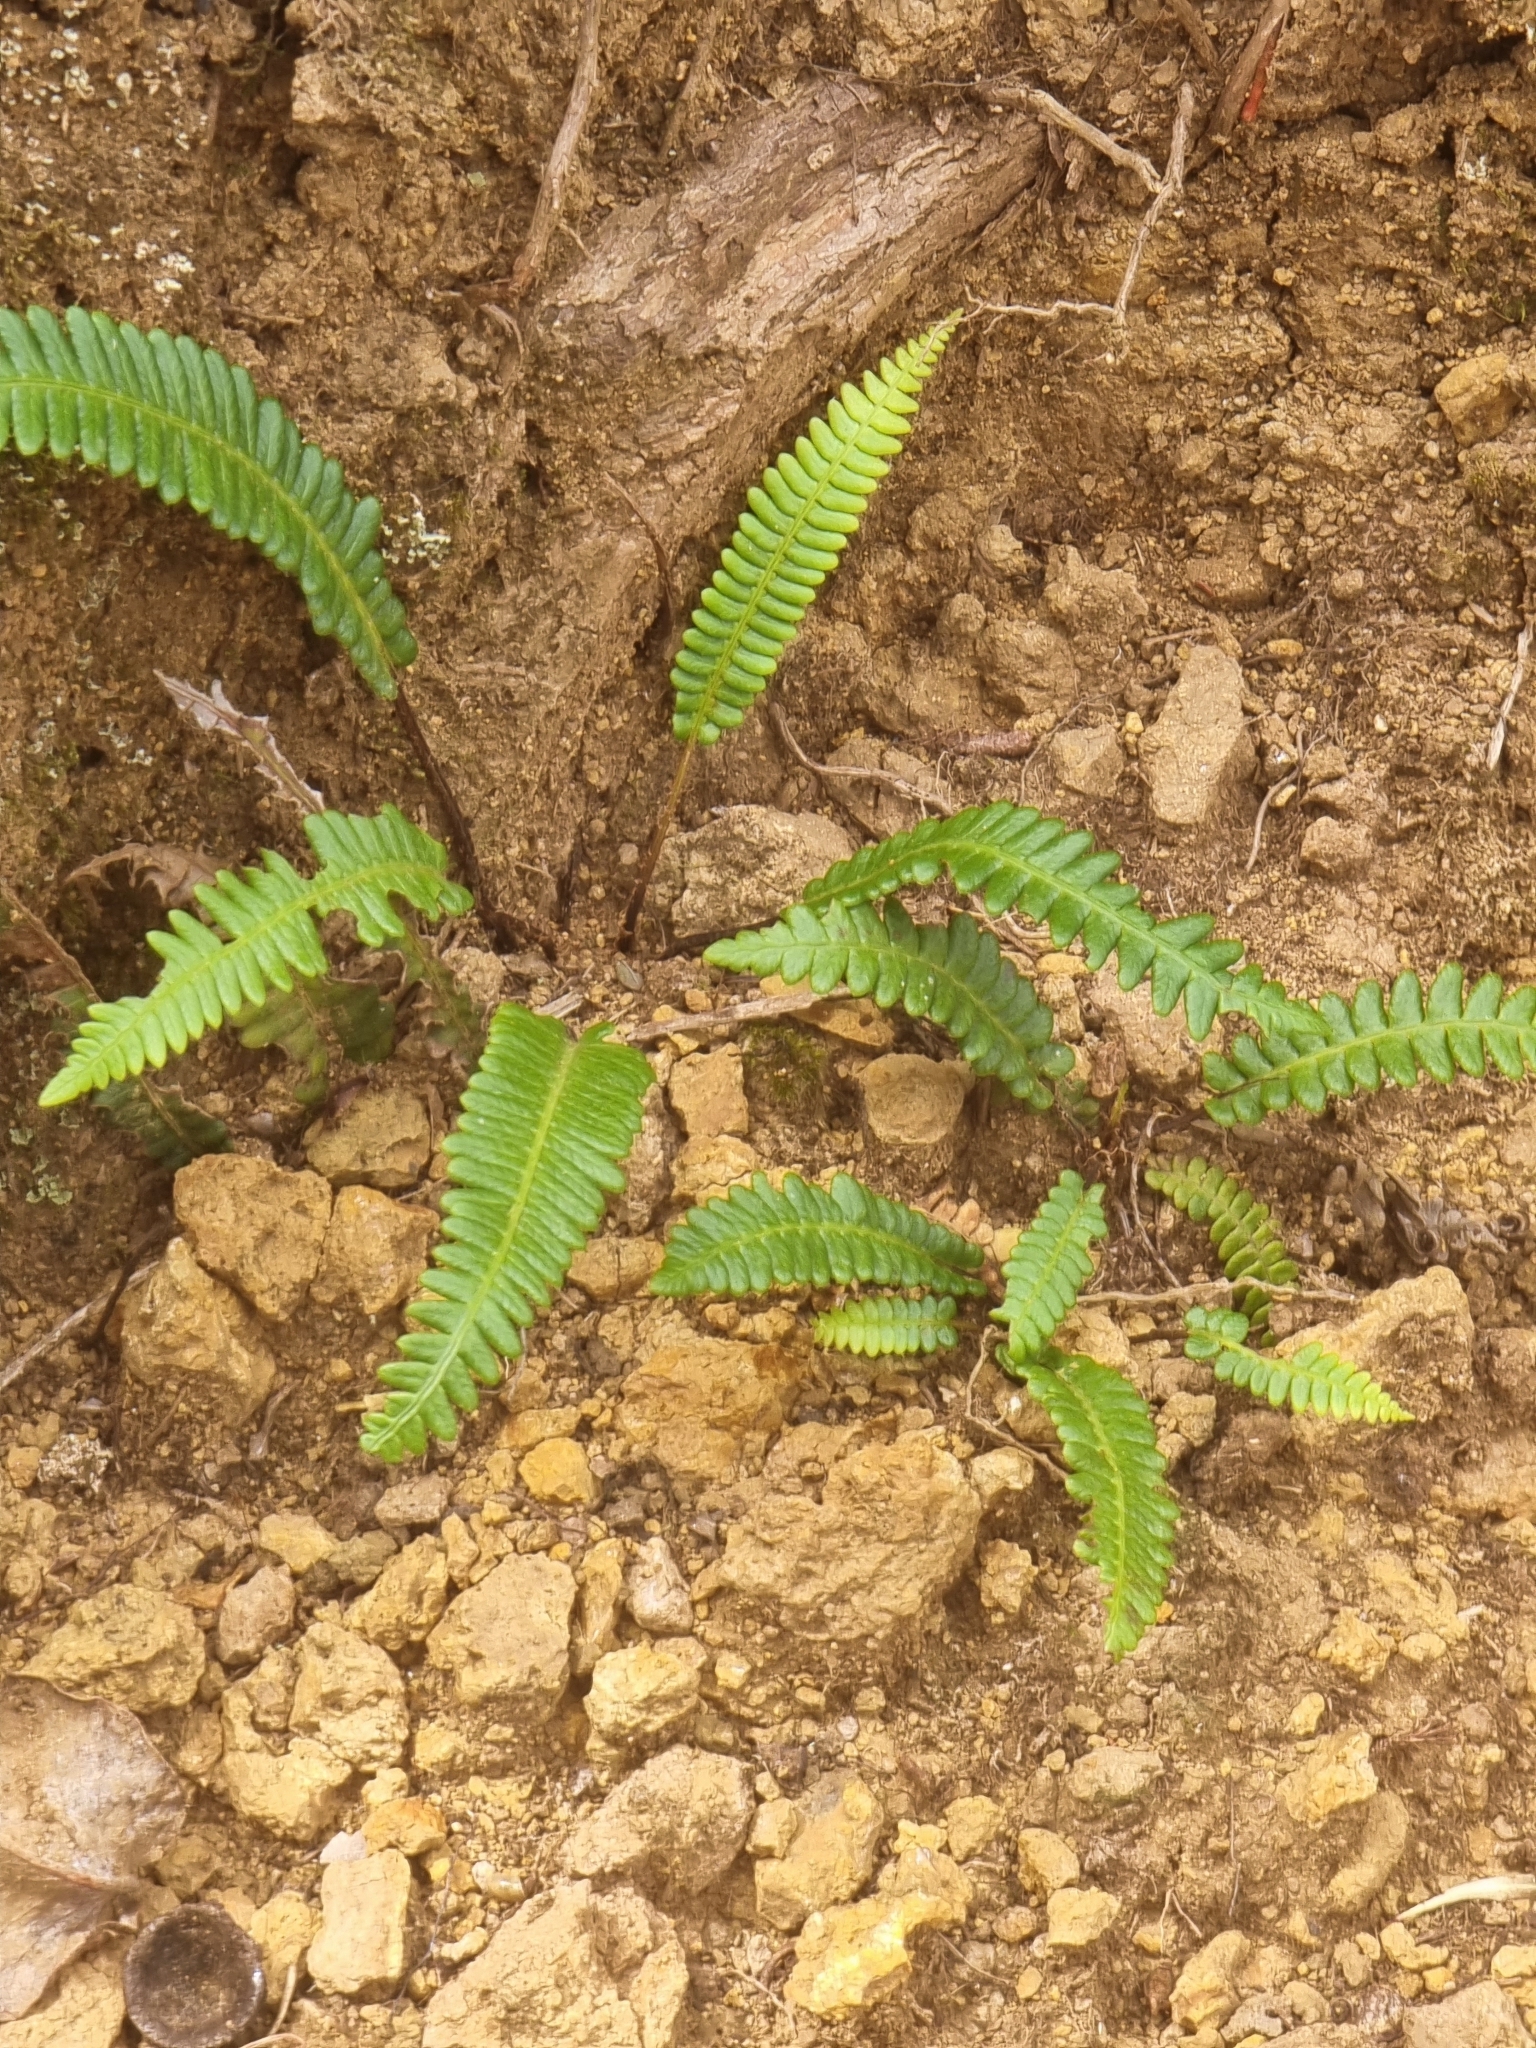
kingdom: Plantae
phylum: Tracheophyta
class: Polypodiopsida
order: Polypodiales
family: Blechnaceae
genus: Struthiopteris
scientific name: Struthiopteris spicant
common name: Deer fern
